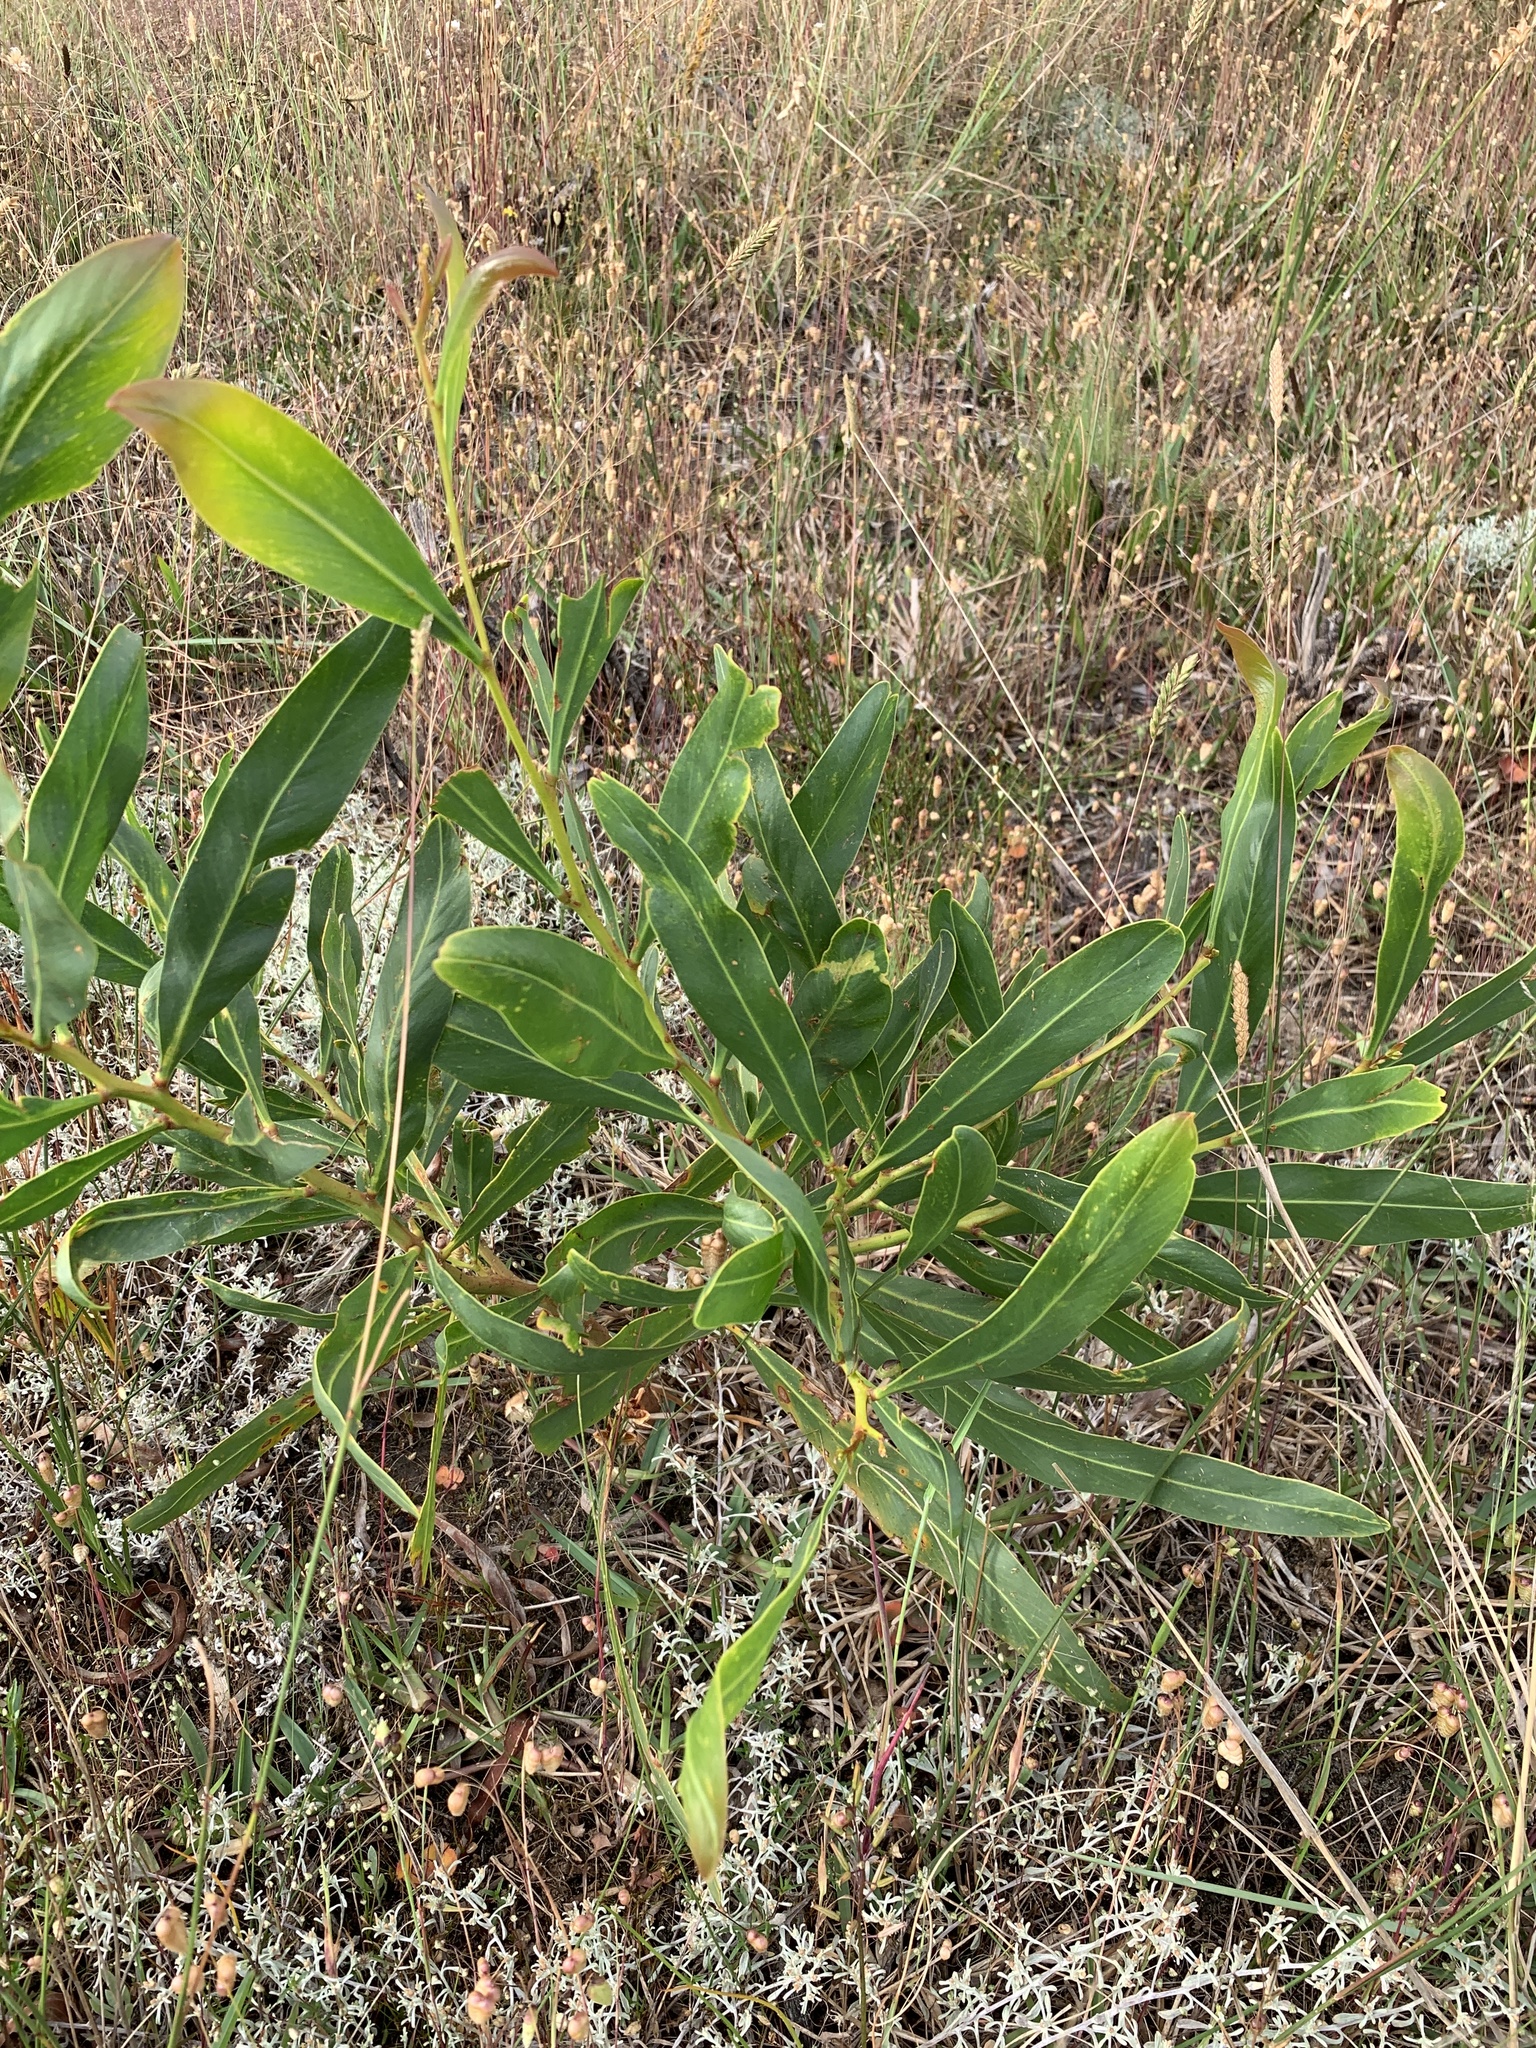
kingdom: Plantae
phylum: Tracheophyta
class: Magnoliopsida
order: Fabales
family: Fabaceae
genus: Acacia
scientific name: Acacia saligna
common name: Orange wattle
